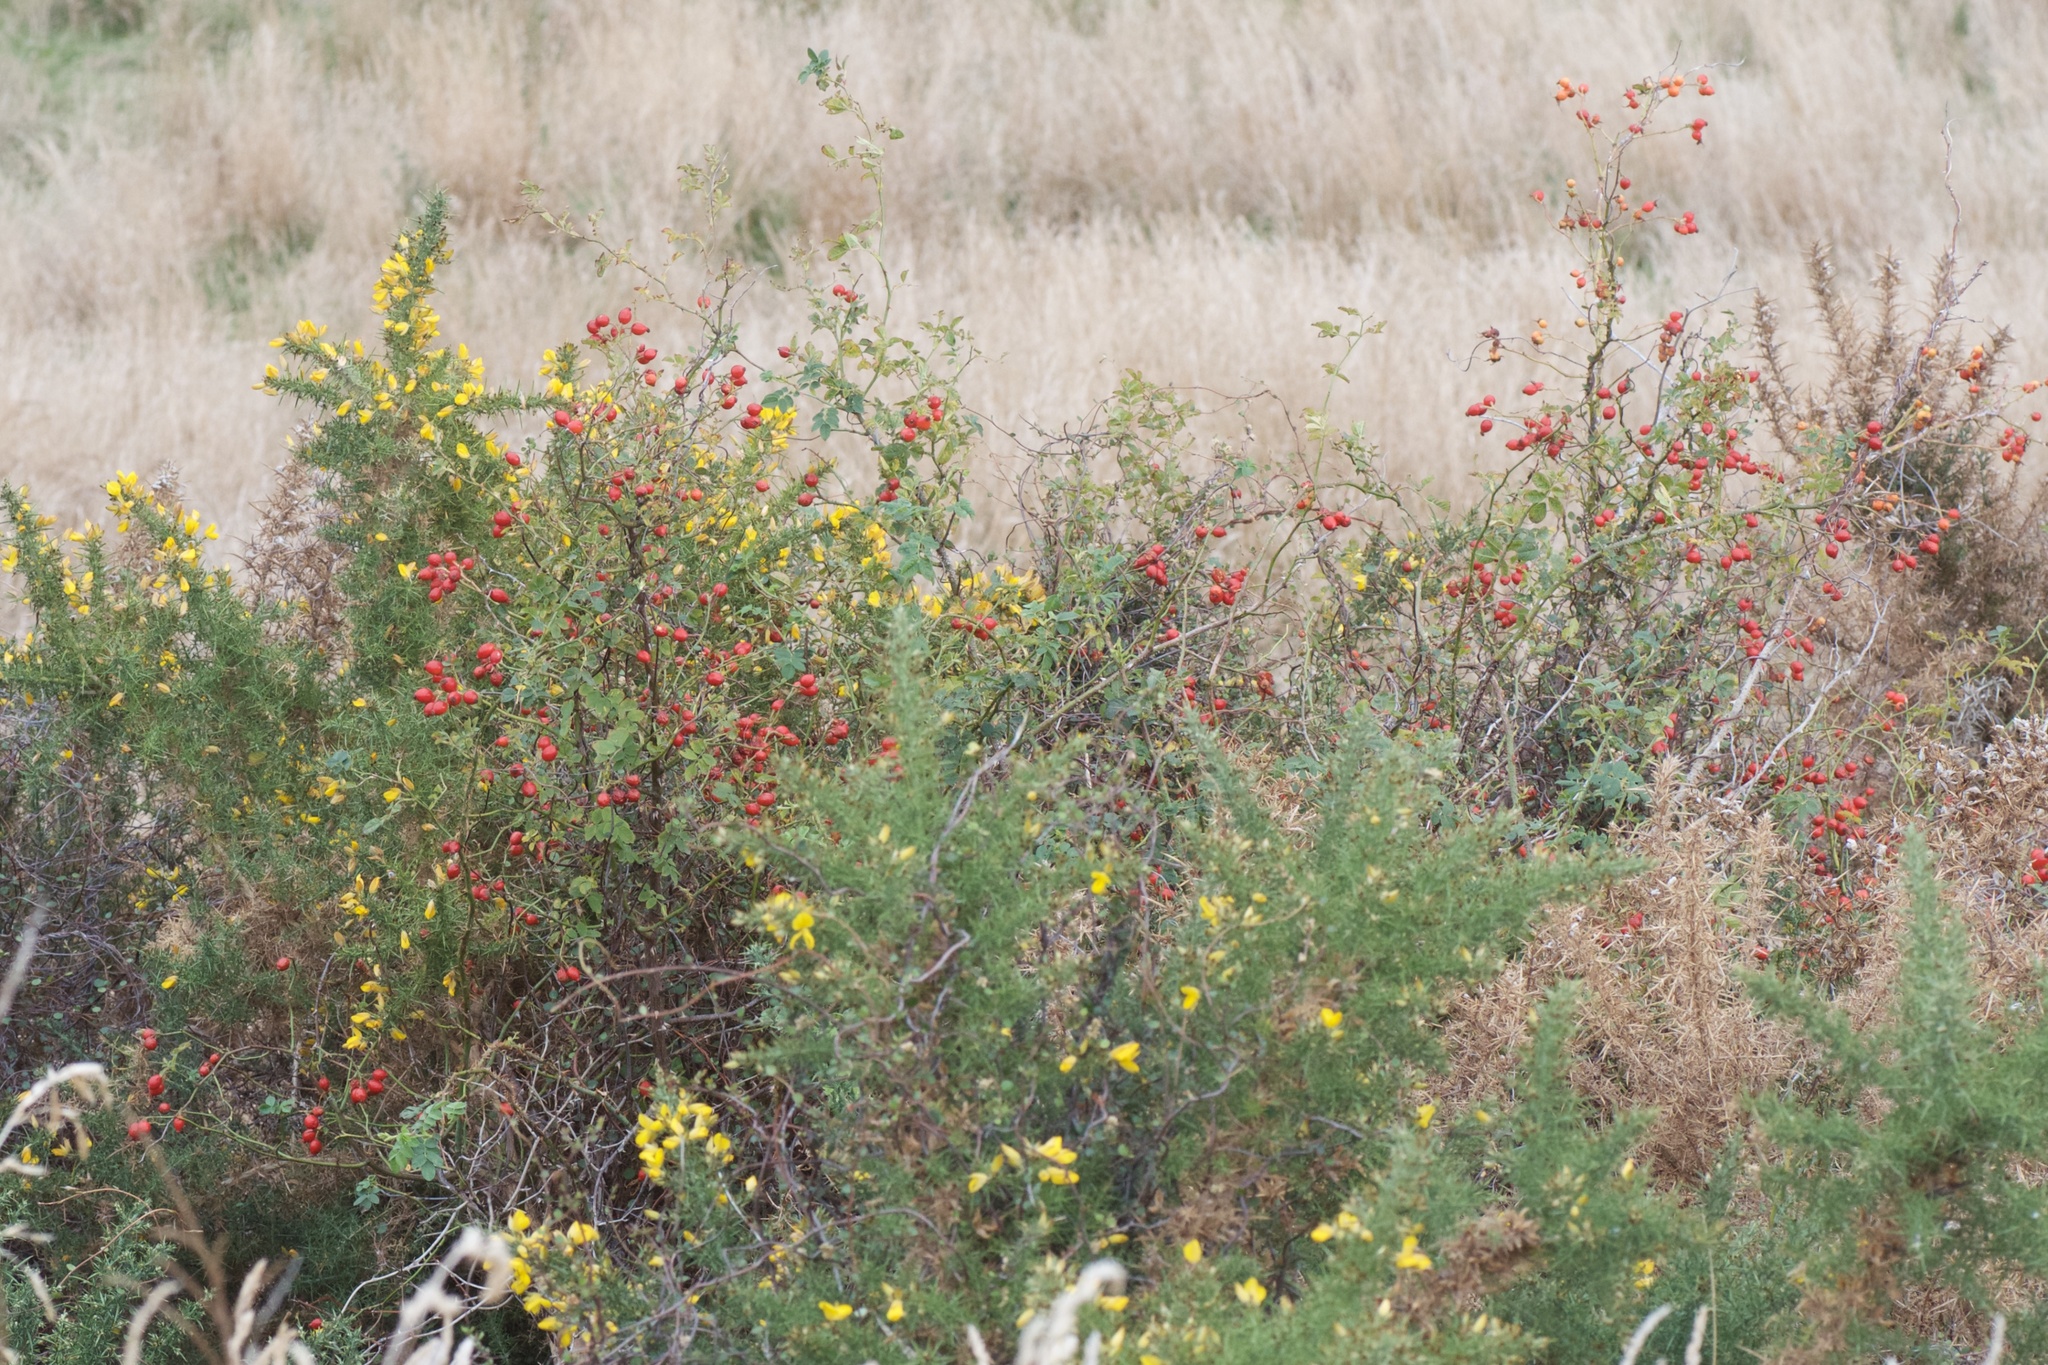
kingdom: Plantae
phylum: Tracheophyta
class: Magnoliopsida
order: Rosales
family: Rosaceae
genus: Rosa
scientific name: Rosa rubiginosa
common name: Sweet-briar
